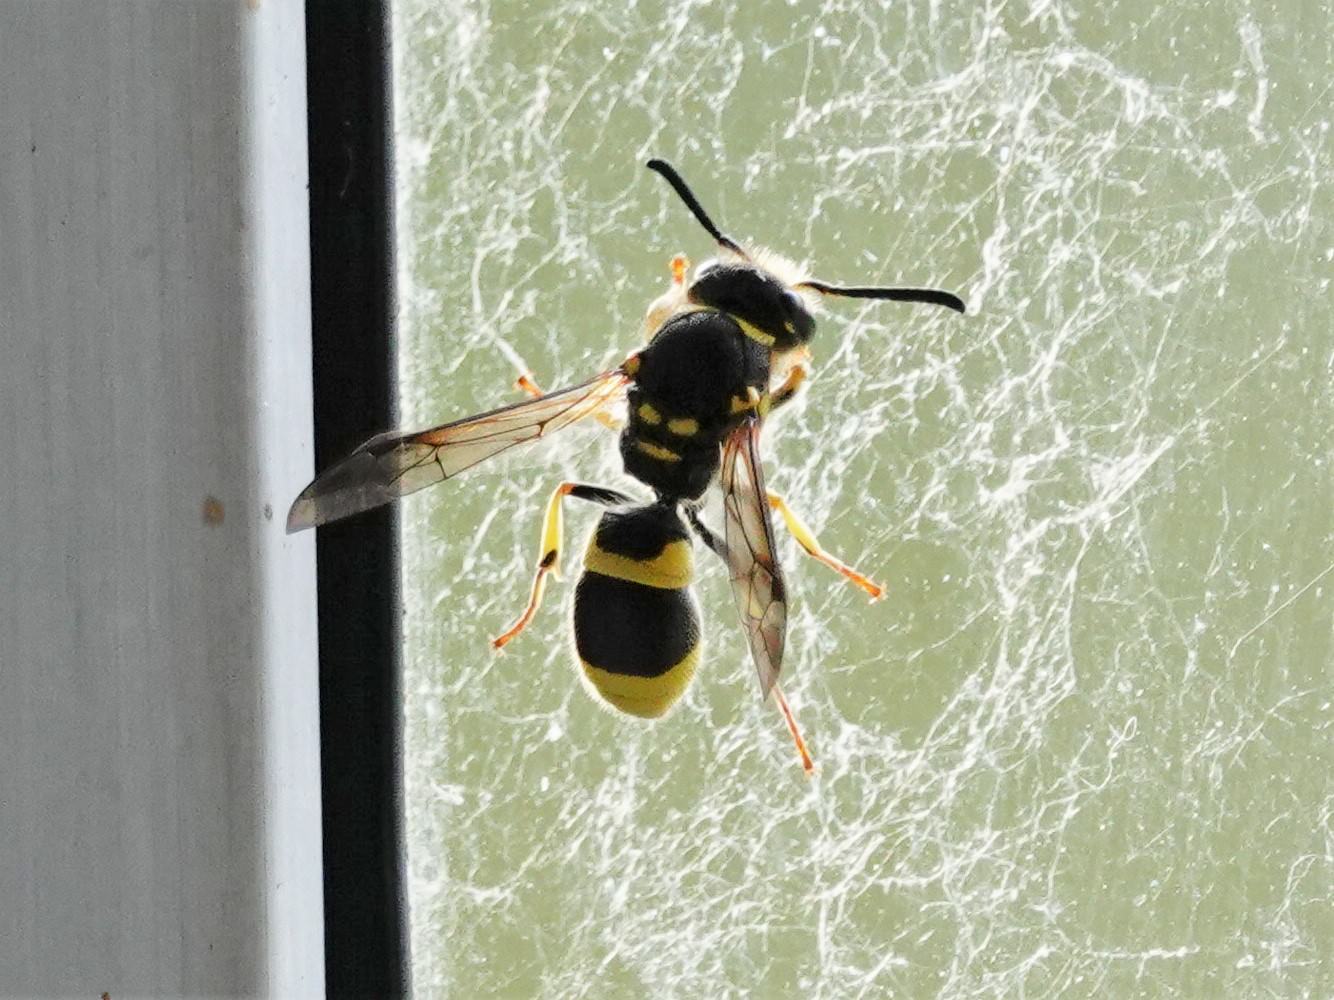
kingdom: Animalia
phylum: Arthropoda
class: Insecta
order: Hymenoptera
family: Vespidae
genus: Ancistrocerus
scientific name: Ancistrocerus gazella
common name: European tube wasp
